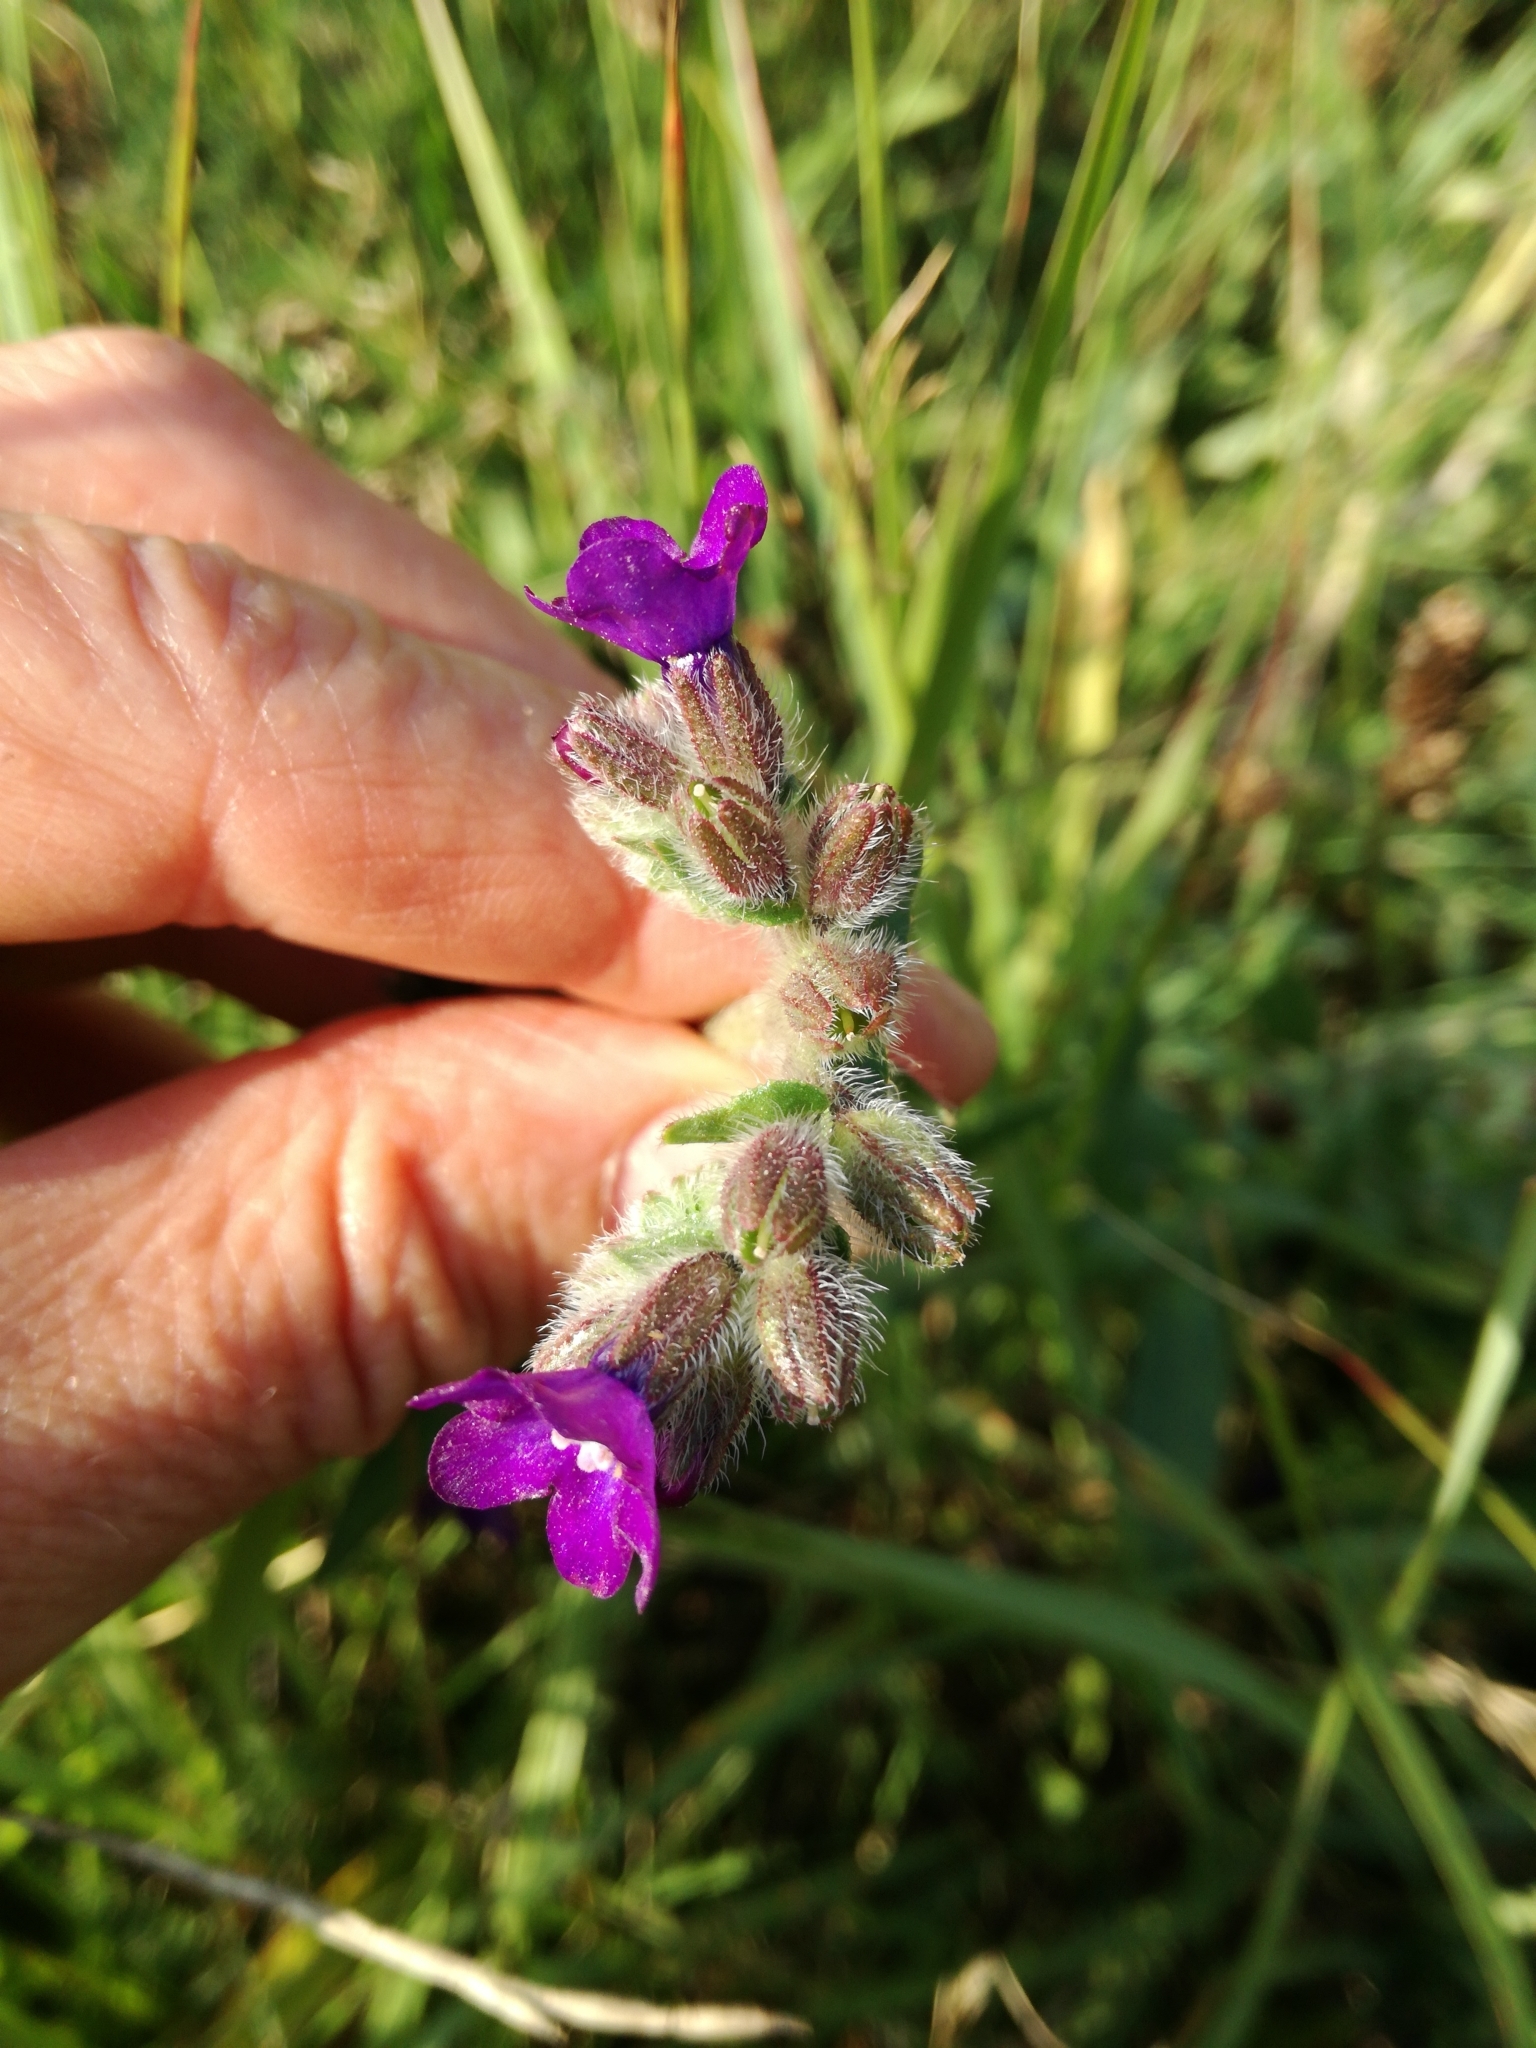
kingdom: Plantae
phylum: Tracheophyta
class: Magnoliopsida
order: Boraginales
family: Boraginaceae
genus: Anchusa
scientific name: Anchusa officinalis
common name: Alkanet
